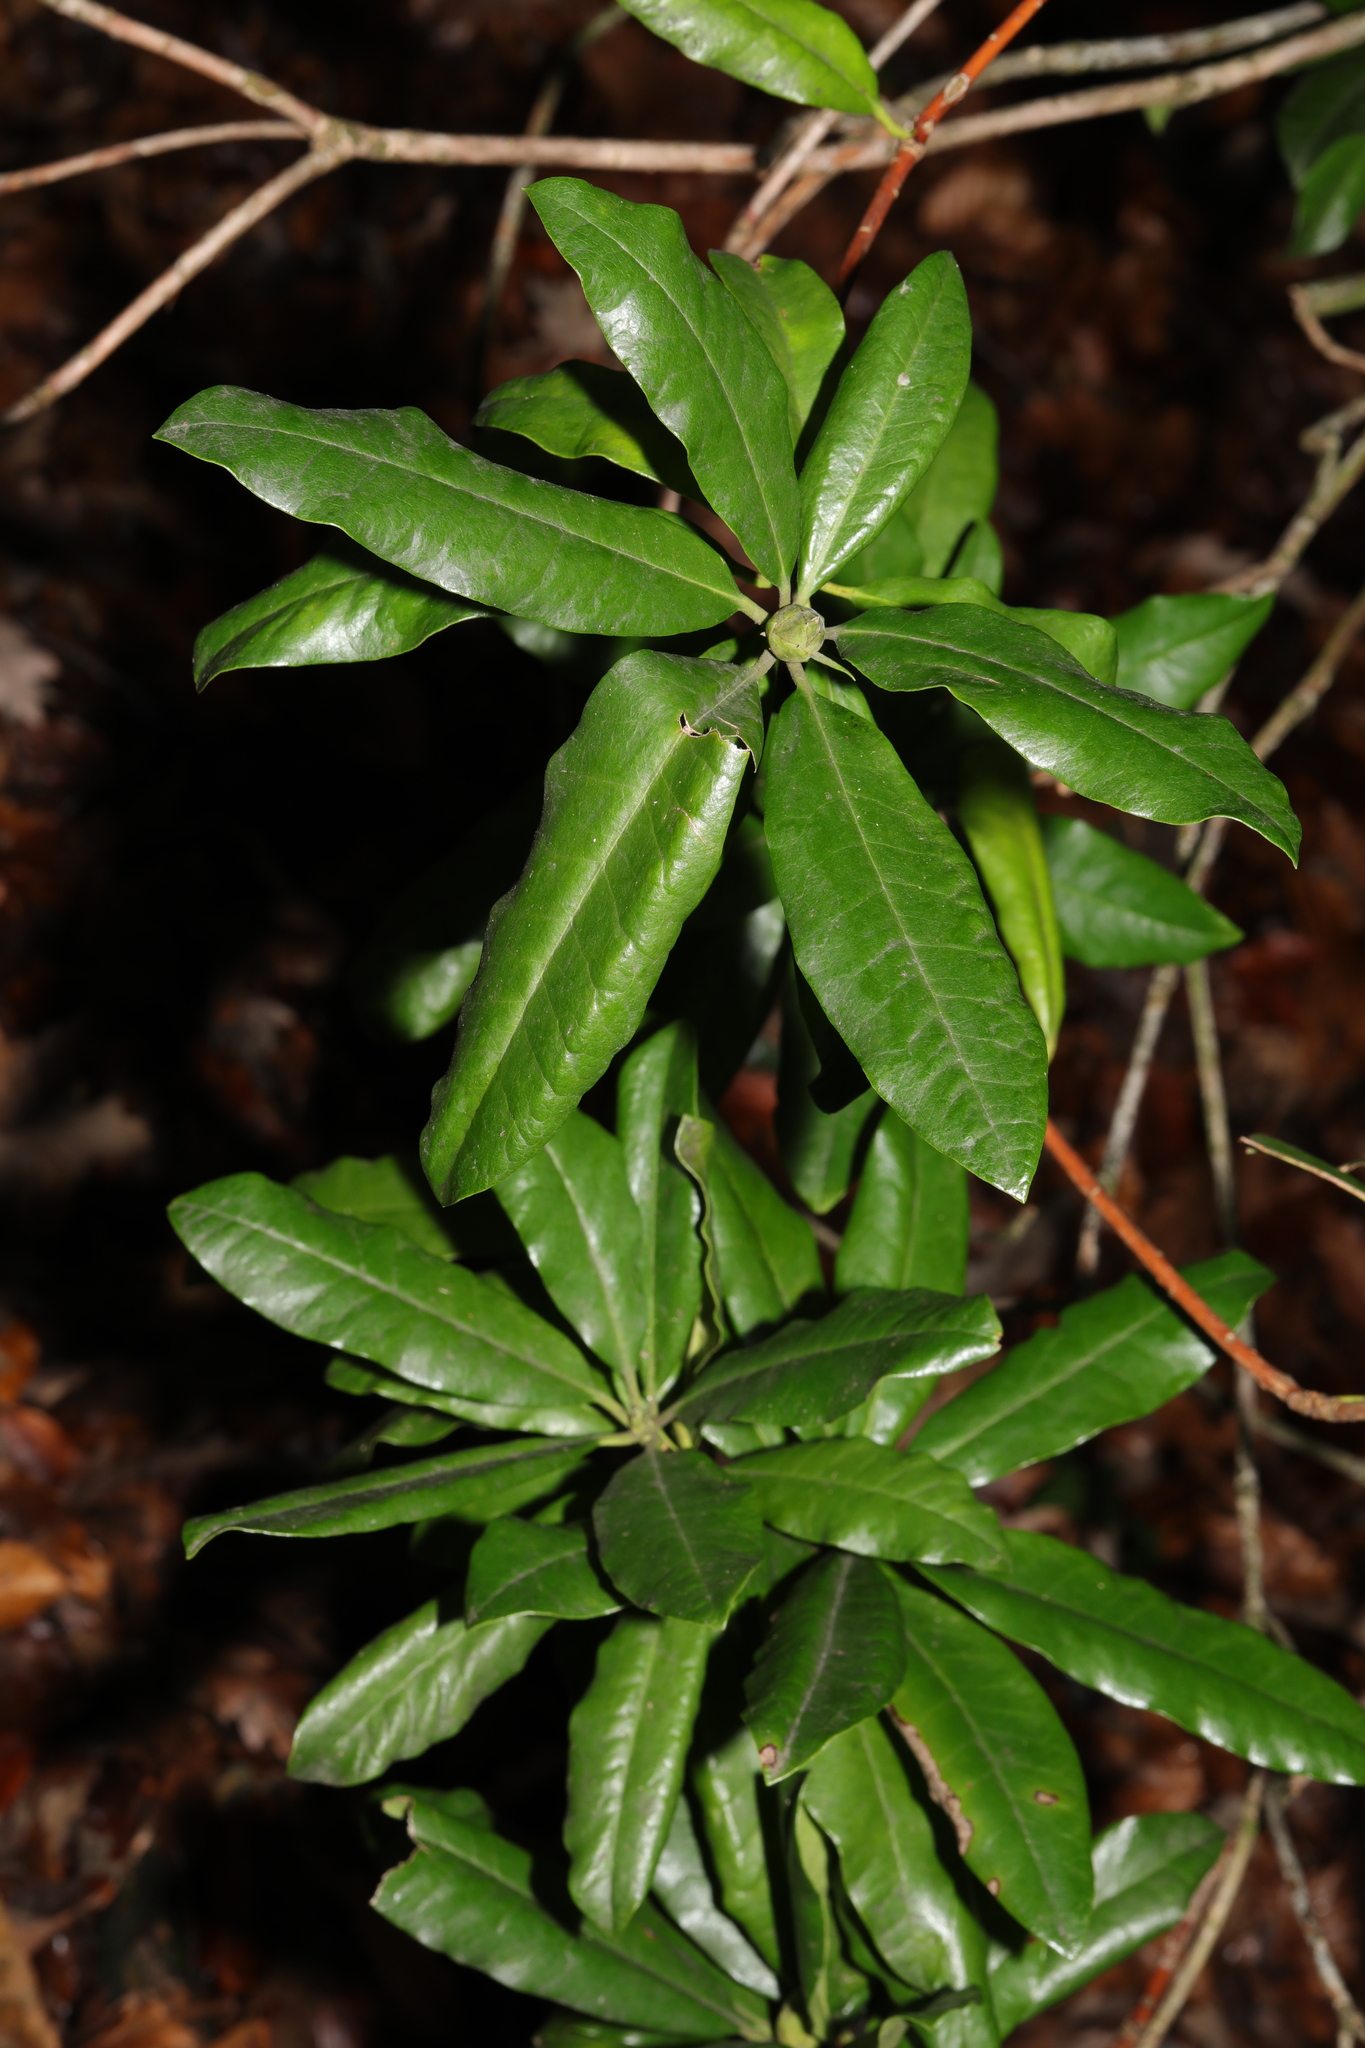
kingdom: Plantae
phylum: Tracheophyta
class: Magnoliopsida
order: Ericales
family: Ericaceae
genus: Rhododendron
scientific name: Rhododendron ponticum
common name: Rhododendron
